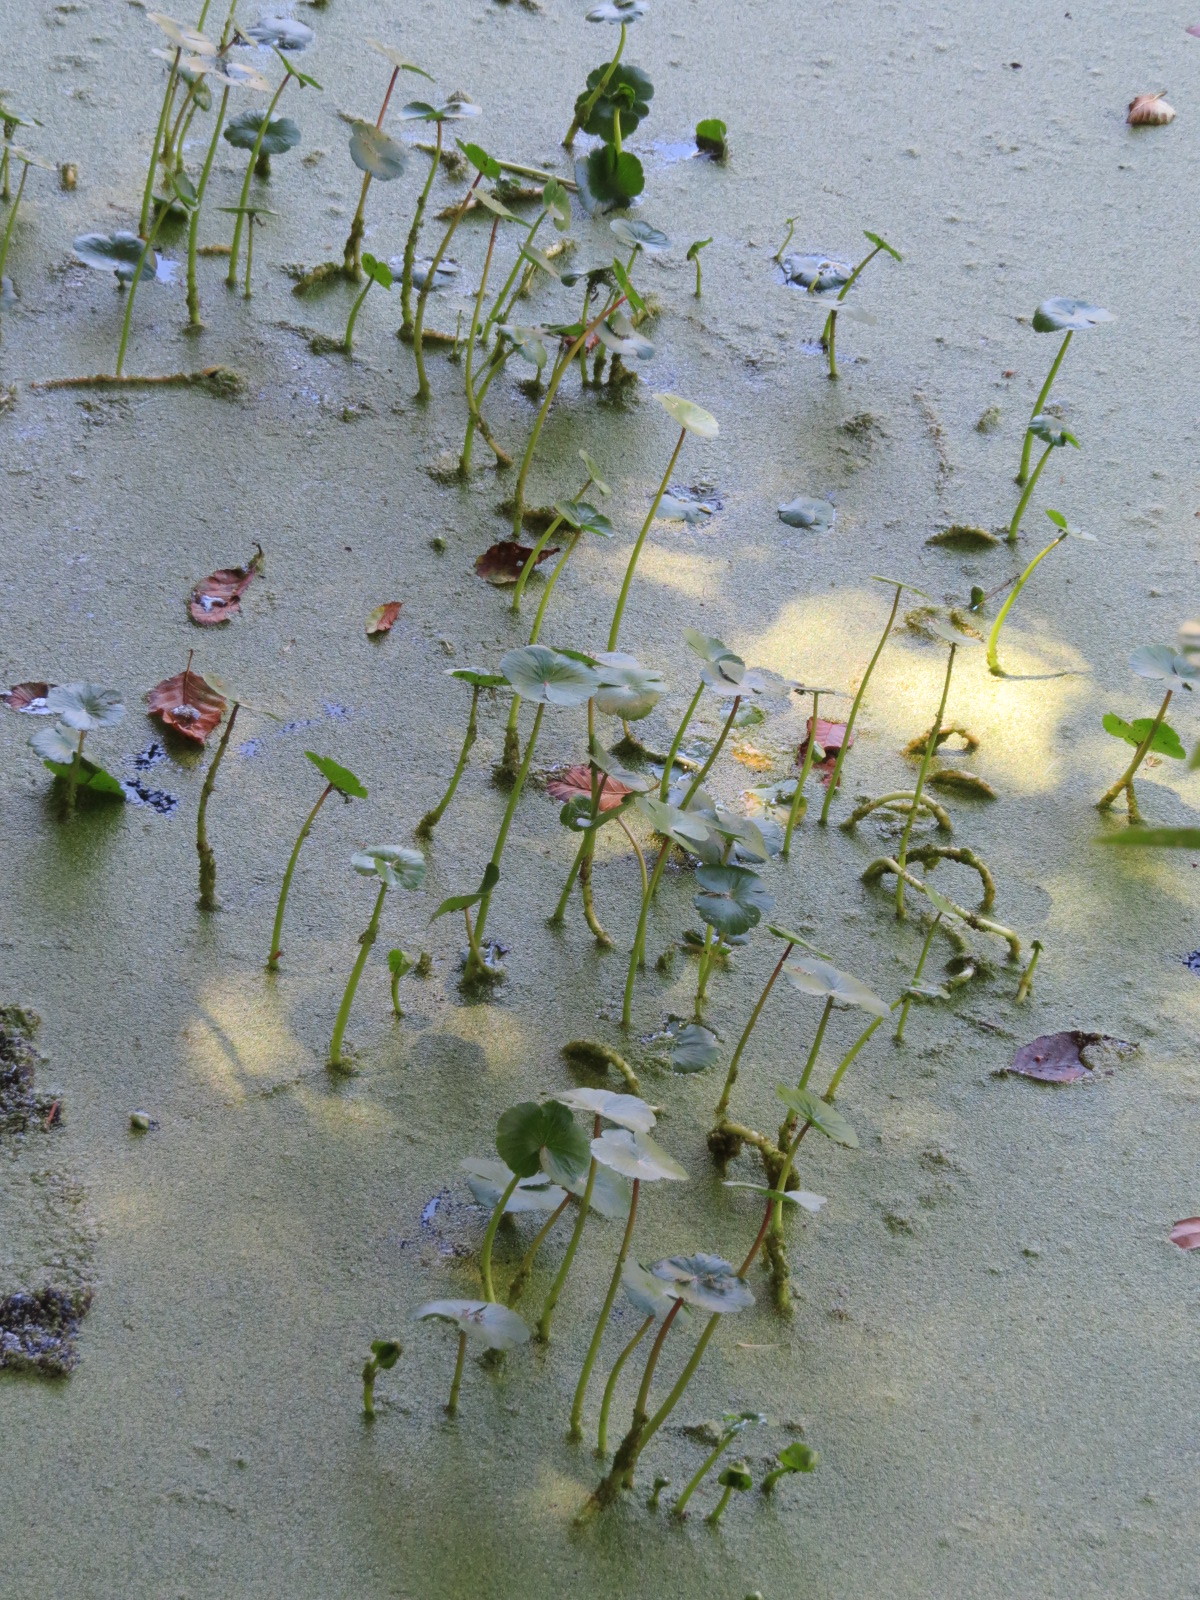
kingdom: Plantae
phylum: Tracheophyta
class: Magnoliopsida
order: Apiales
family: Araliaceae
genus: Hydrocotyle
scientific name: Hydrocotyle ranunculoides
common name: Floating pennywort
